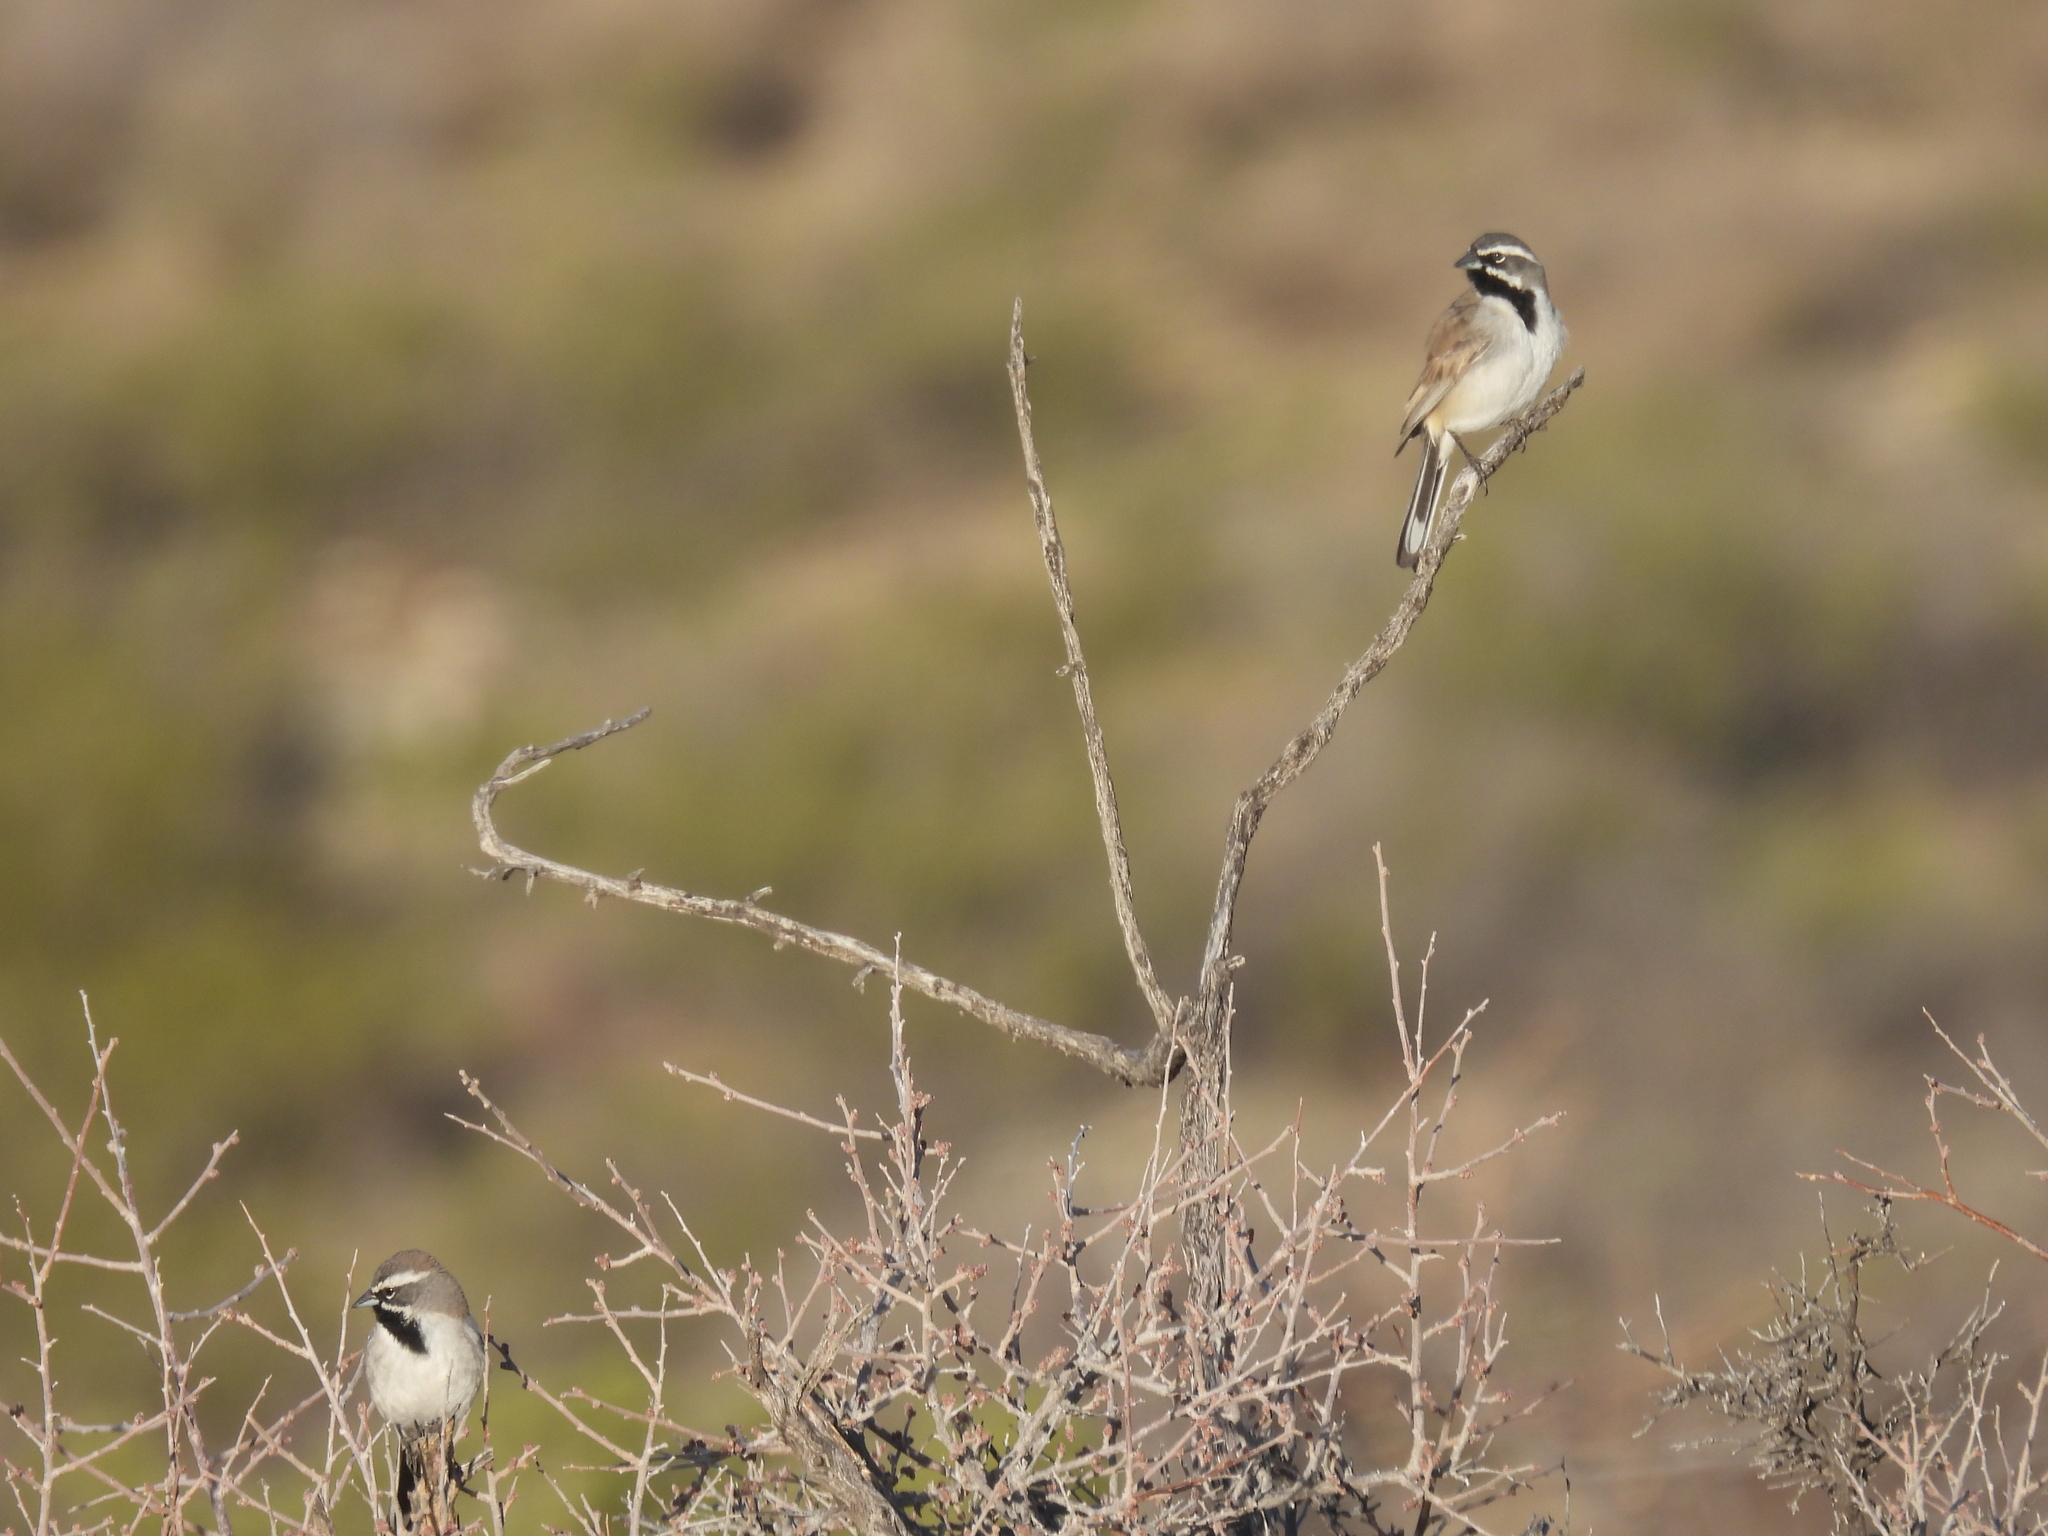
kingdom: Animalia
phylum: Chordata
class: Aves
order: Passeriformes
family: Passerellidae
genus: Amphispiza
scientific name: Amphispiza bilineata
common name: Black-throated sparrow
